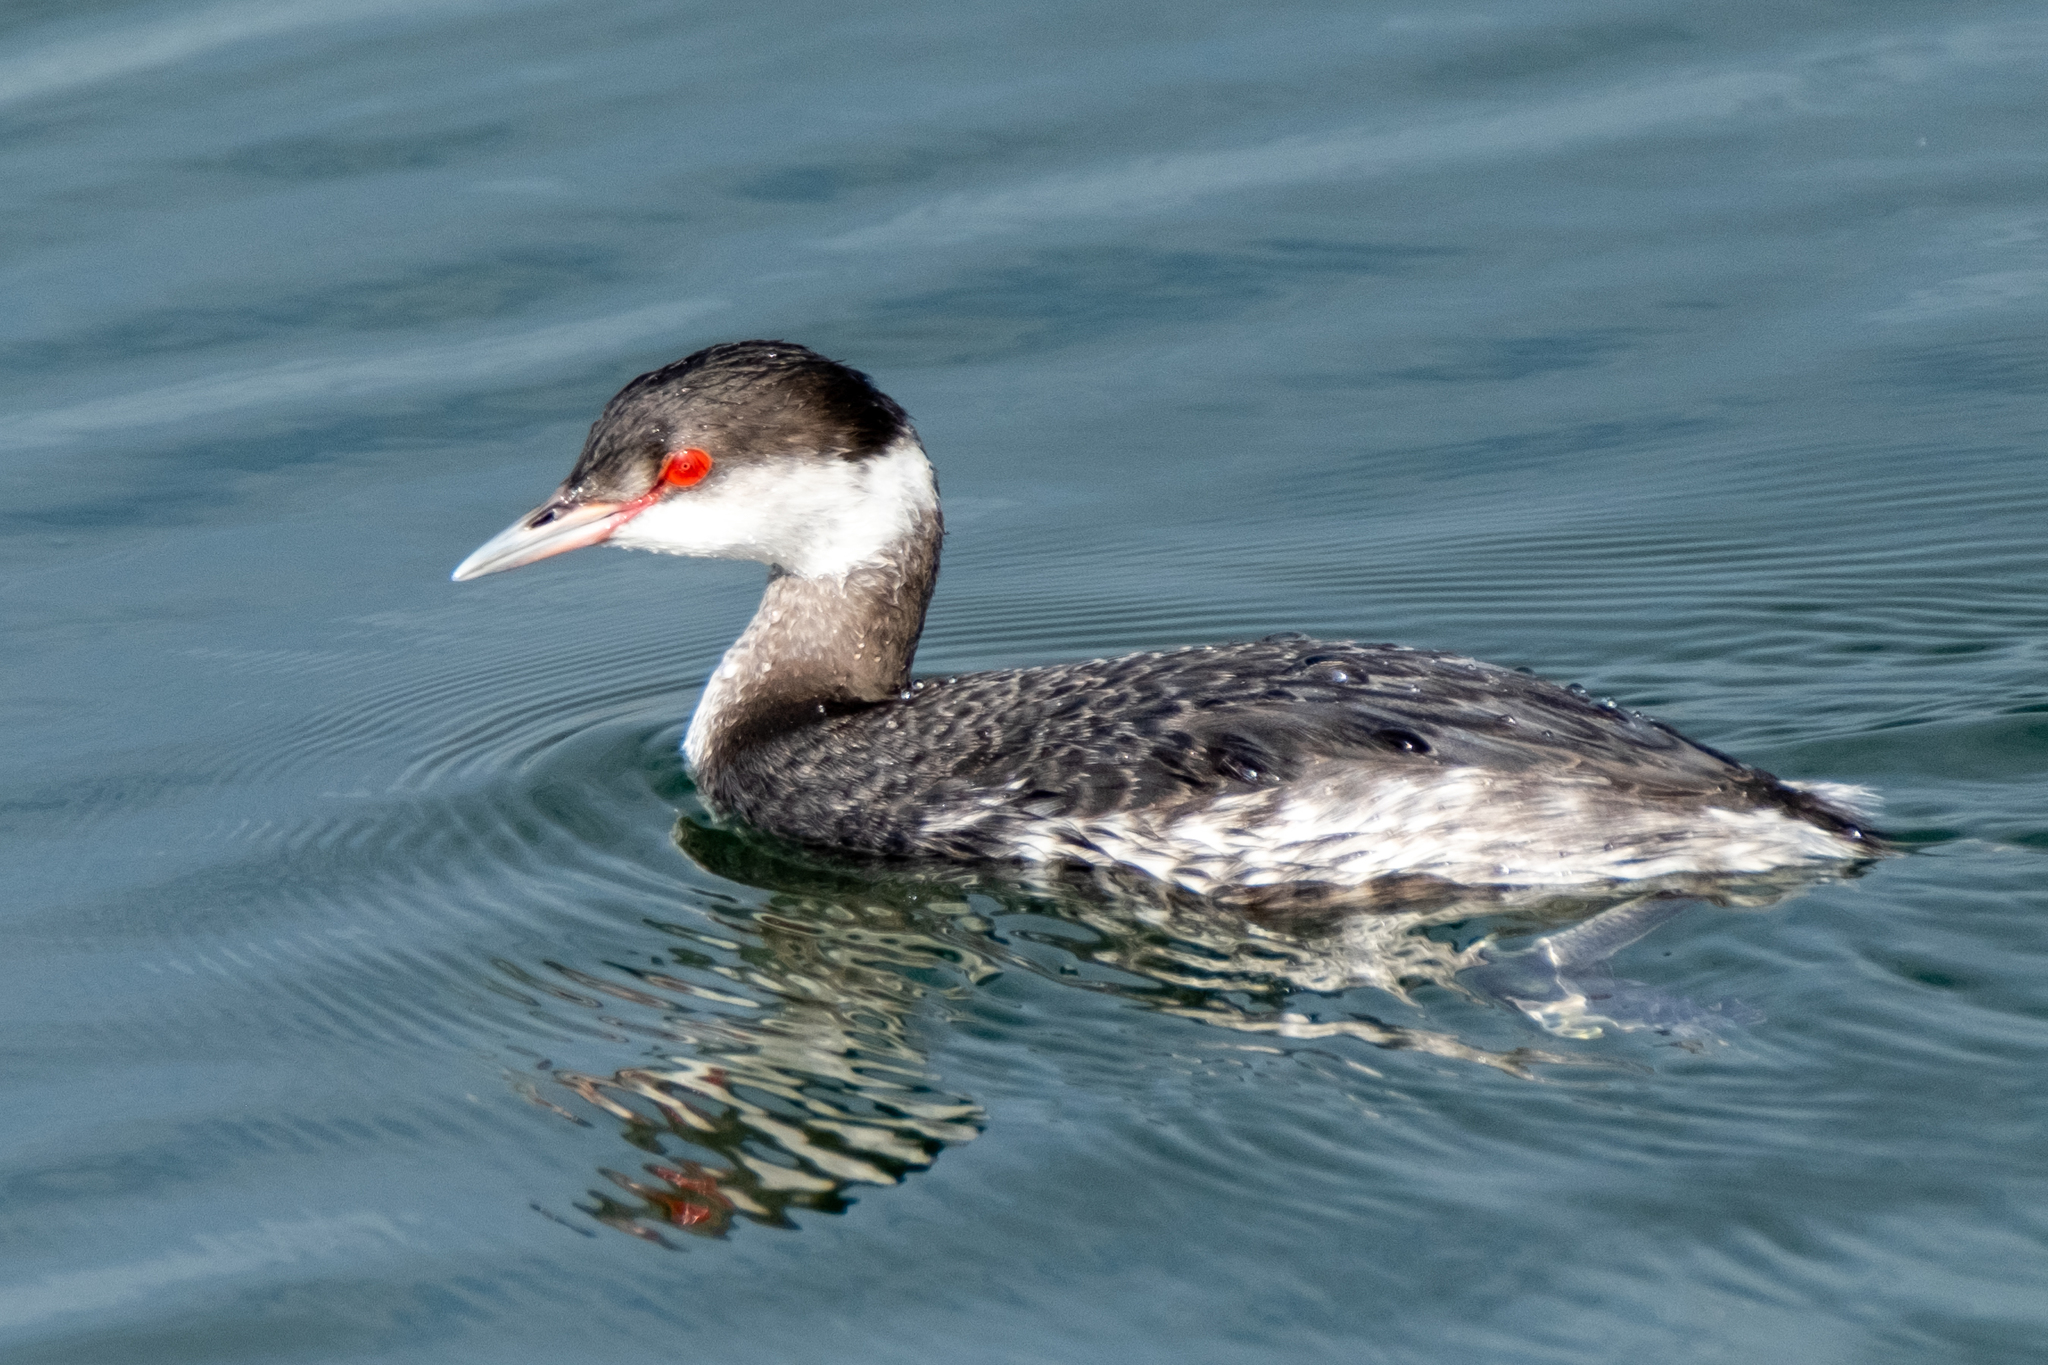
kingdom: Animalia
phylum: Chordata
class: Aves
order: Podicipediformes
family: Podicipedidae
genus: Podiceps
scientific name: Podiceps auritus
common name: Horned grebe
